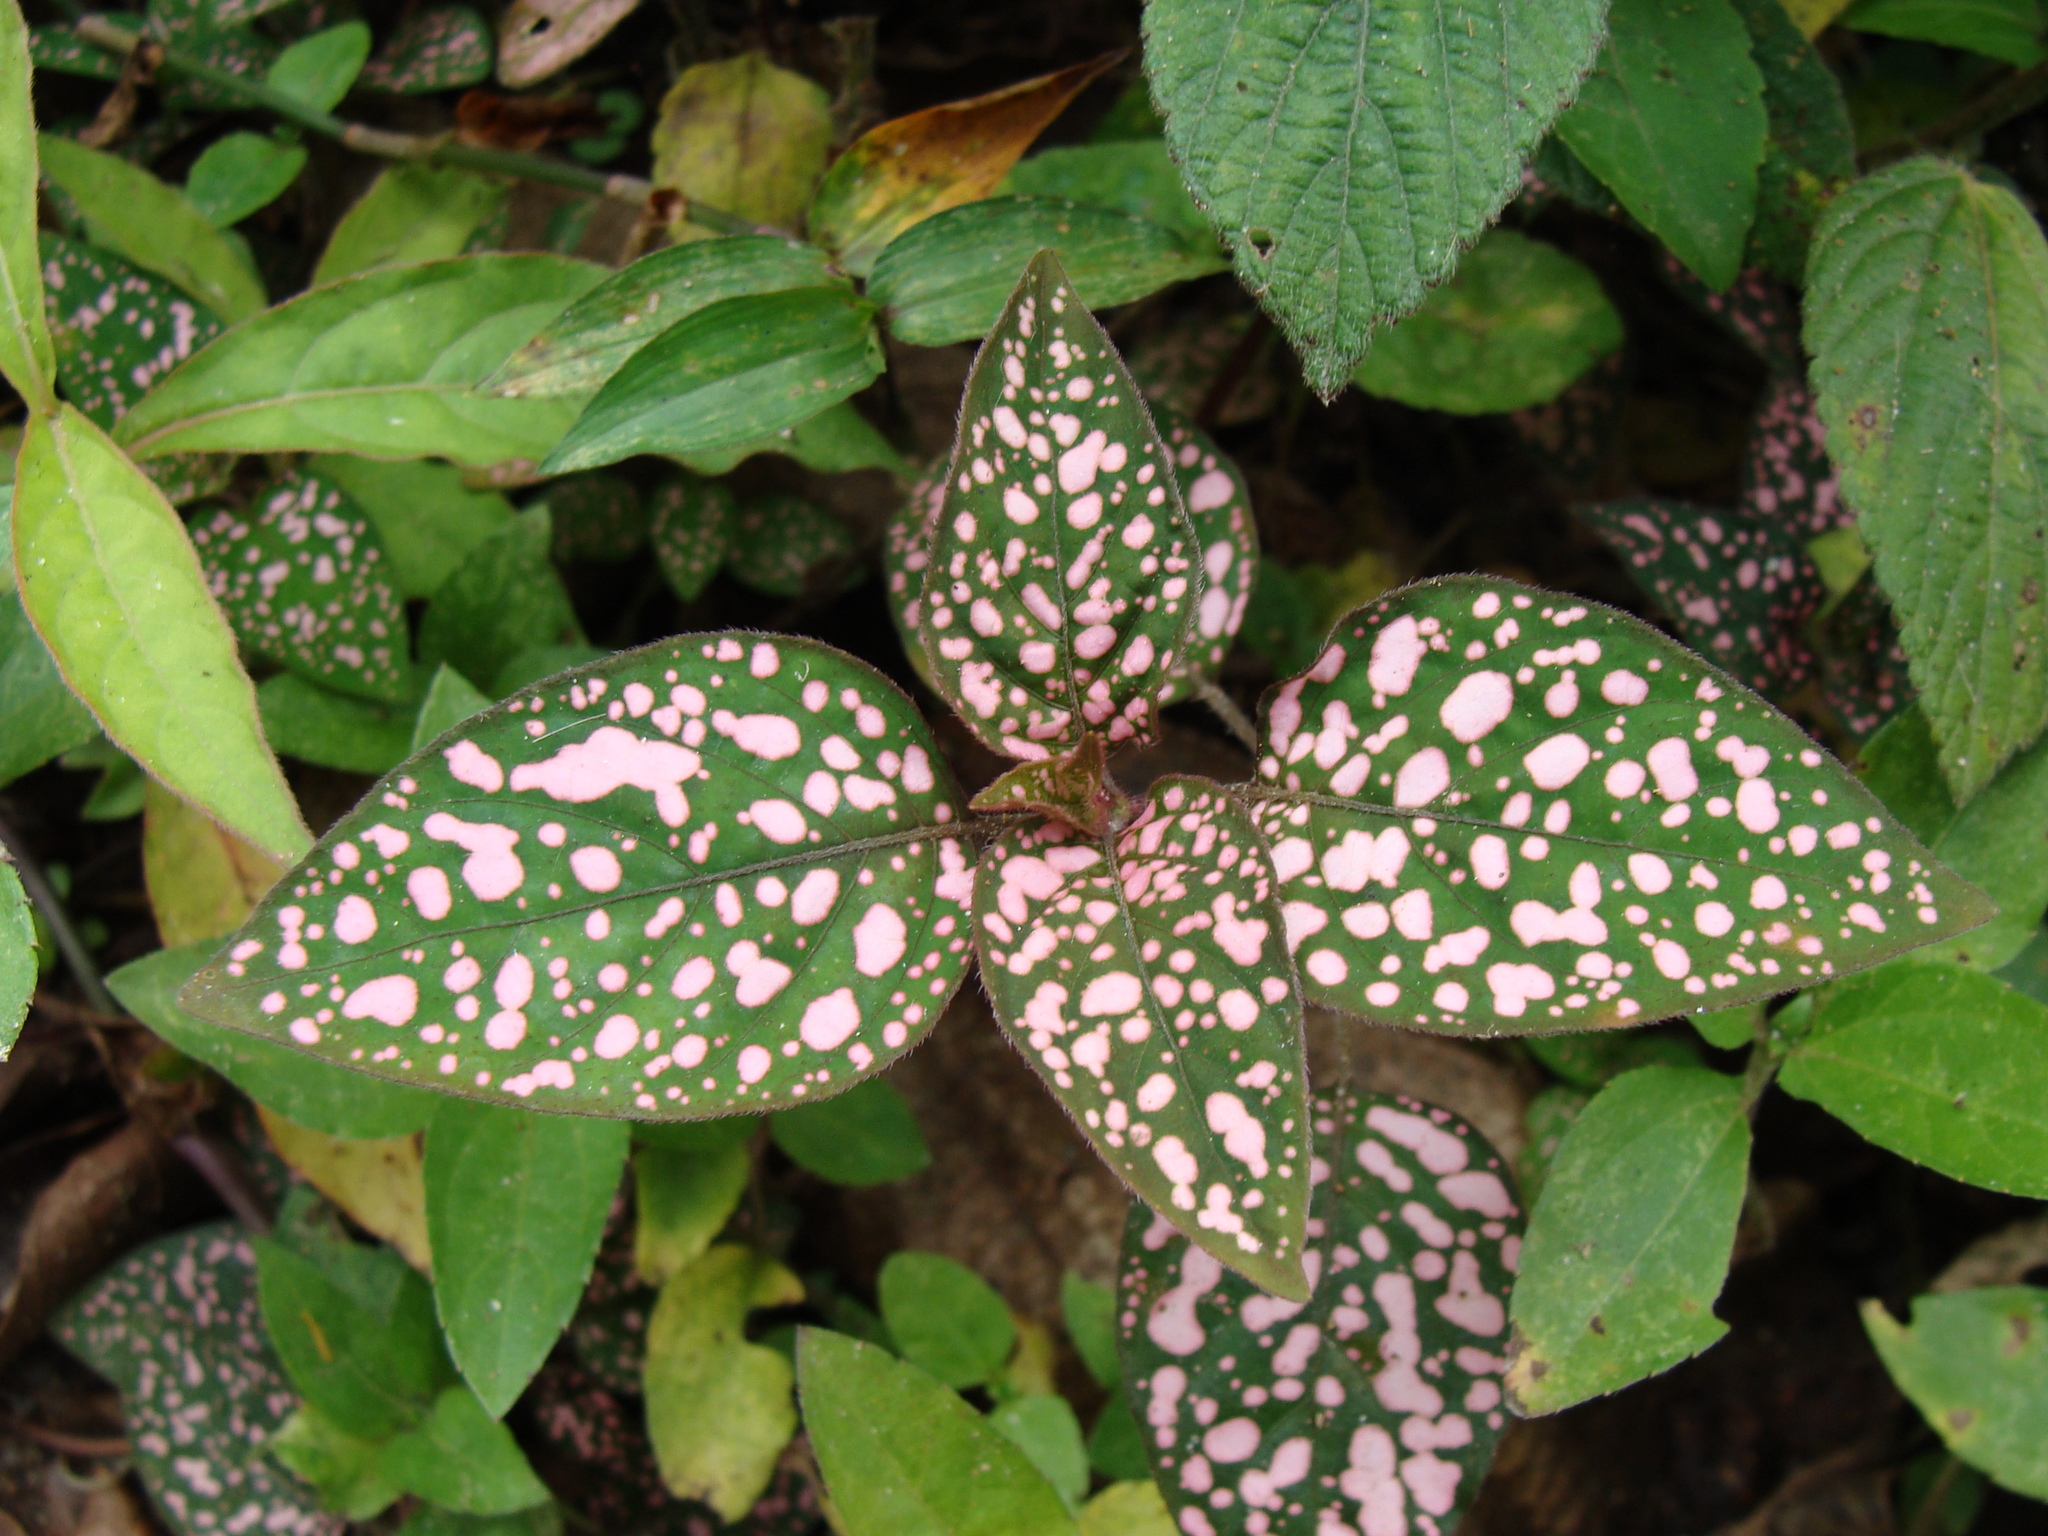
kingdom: Plantae
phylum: Tracheophyta
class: Magnoliopsida
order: Lamiales
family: Acanthaceae
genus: Hypoestes
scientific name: Hypoestes phyllostachya
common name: Polkadot-plant
